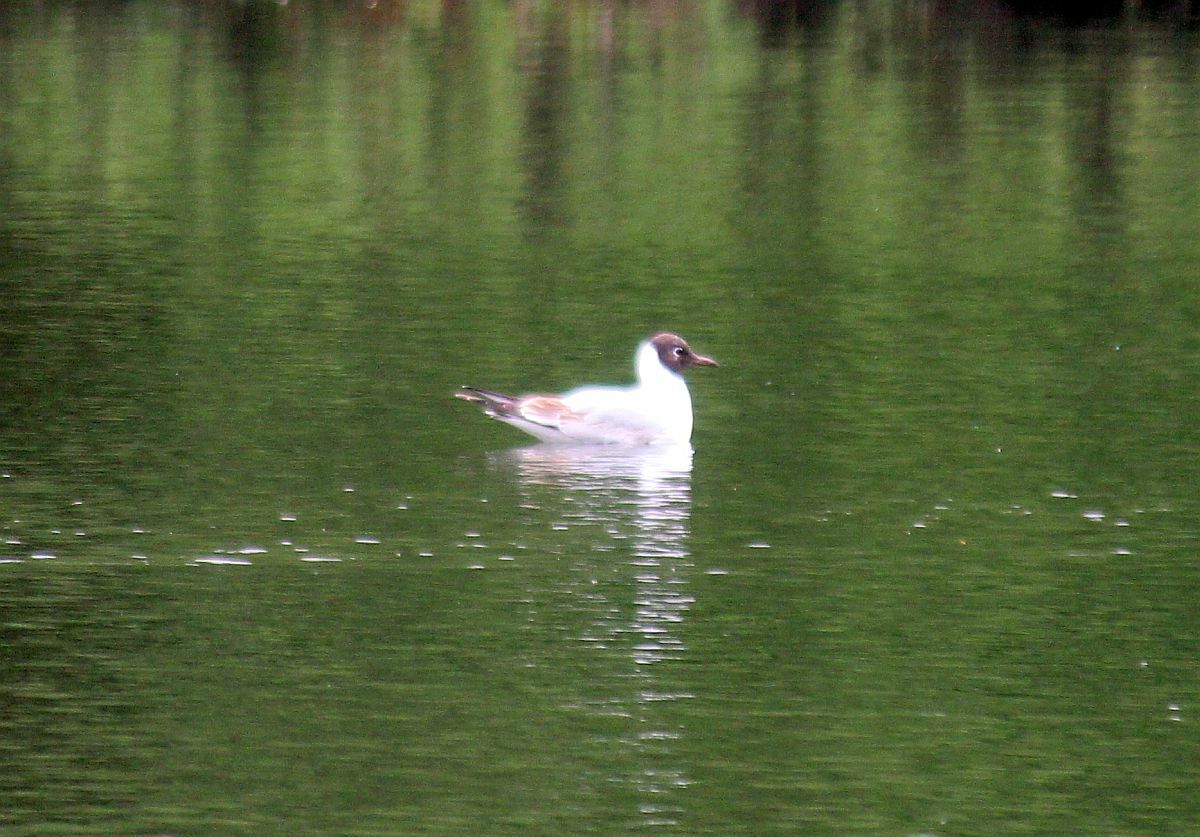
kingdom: Animalia
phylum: Chordata
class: Aves
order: Charadriiformes
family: Laridae
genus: Chroicocephalus
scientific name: Chroicocephalus ridibundus
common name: Black-headed gull
